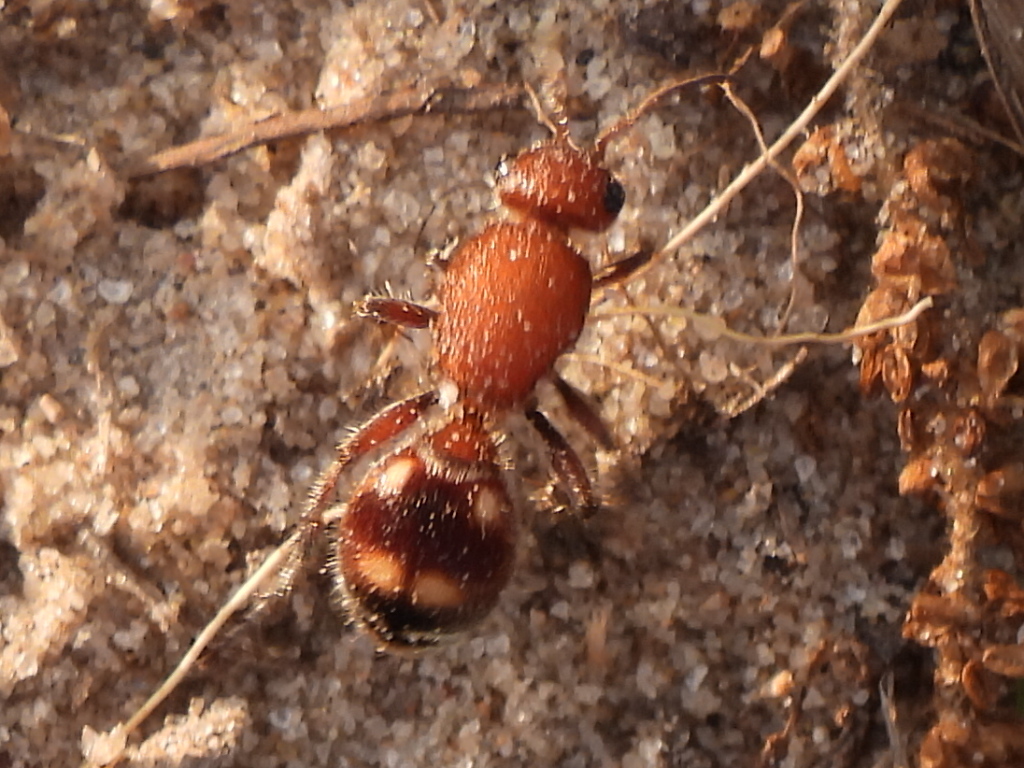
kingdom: Animalia
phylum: Arthropoda
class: Insecta
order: Hymenoptera
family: Mutillidae
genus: Dasymutilla
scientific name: Dasymutilla
